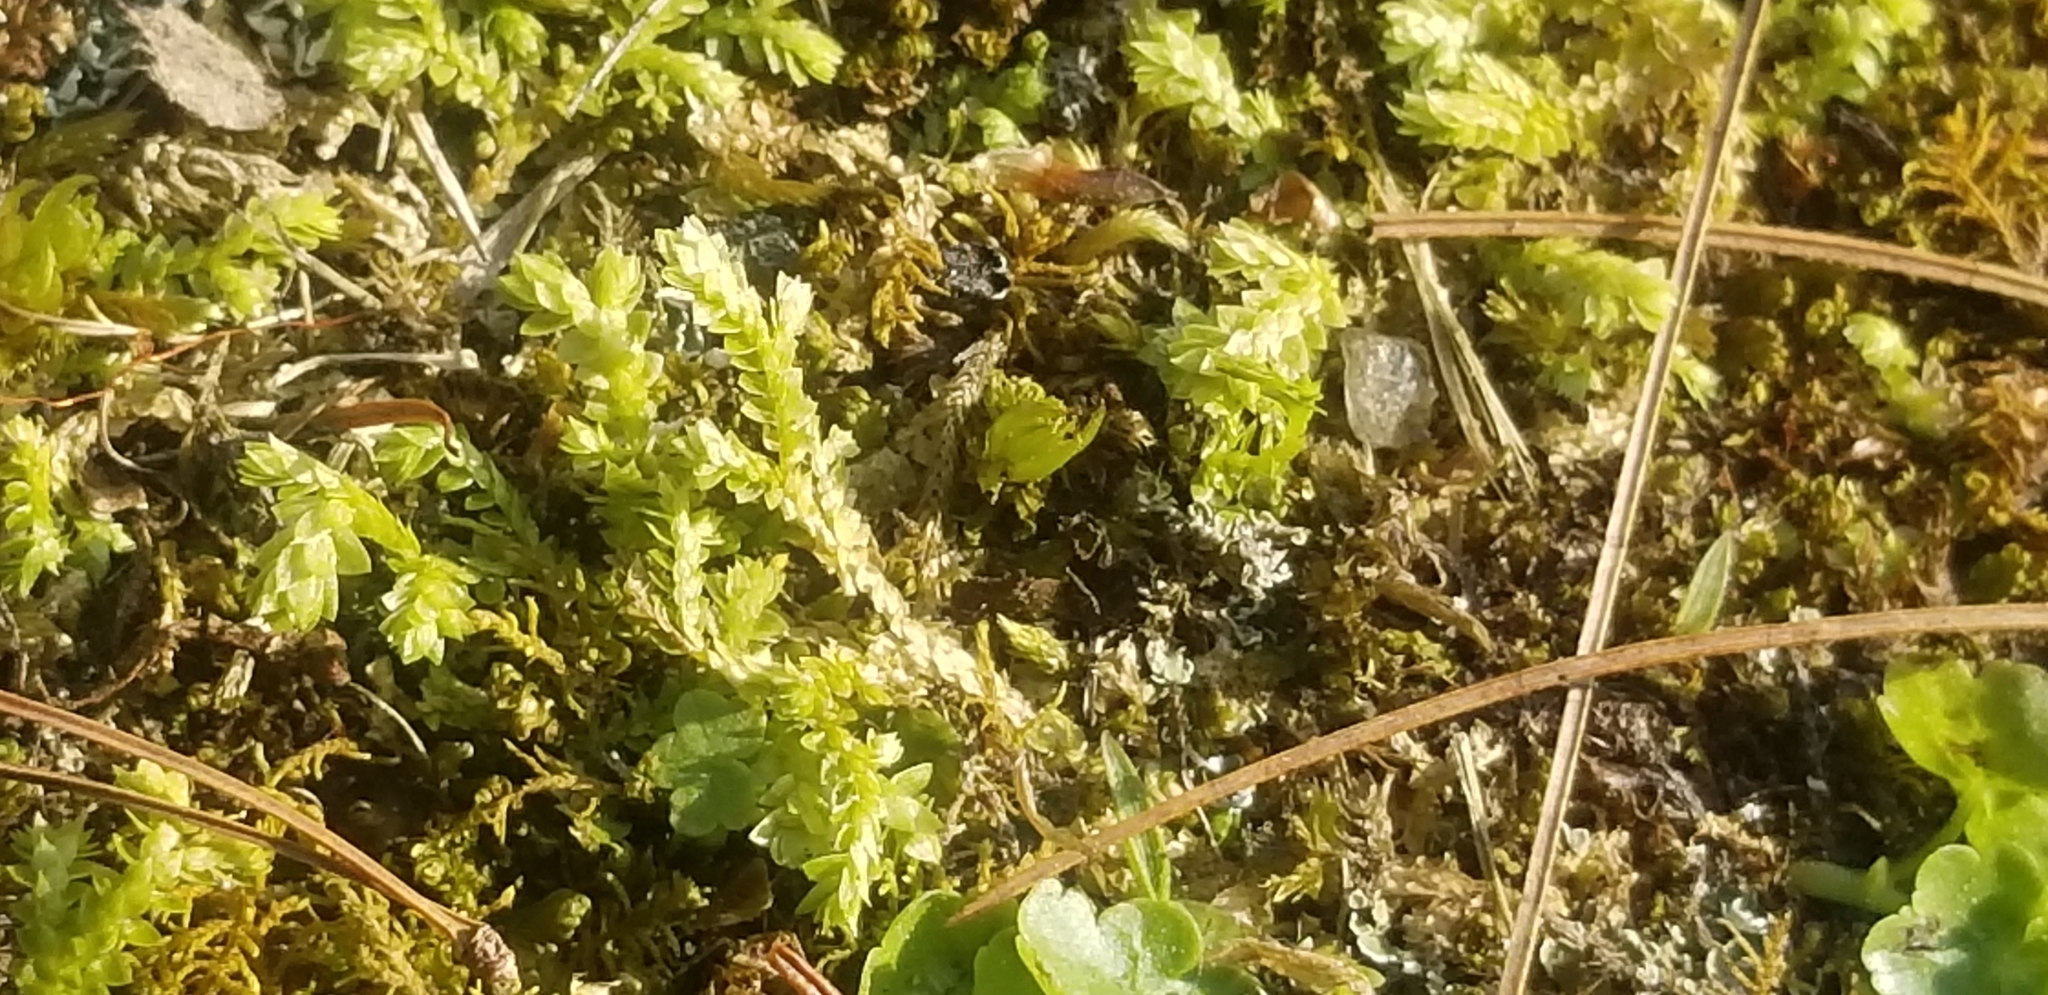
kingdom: Plantae
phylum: Tracheophyta
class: Lycopodiopsida
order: Selaginellales
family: Selaginellaceae
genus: Selaginella
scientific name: Selaginella apoda
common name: Creeping spikemoss
